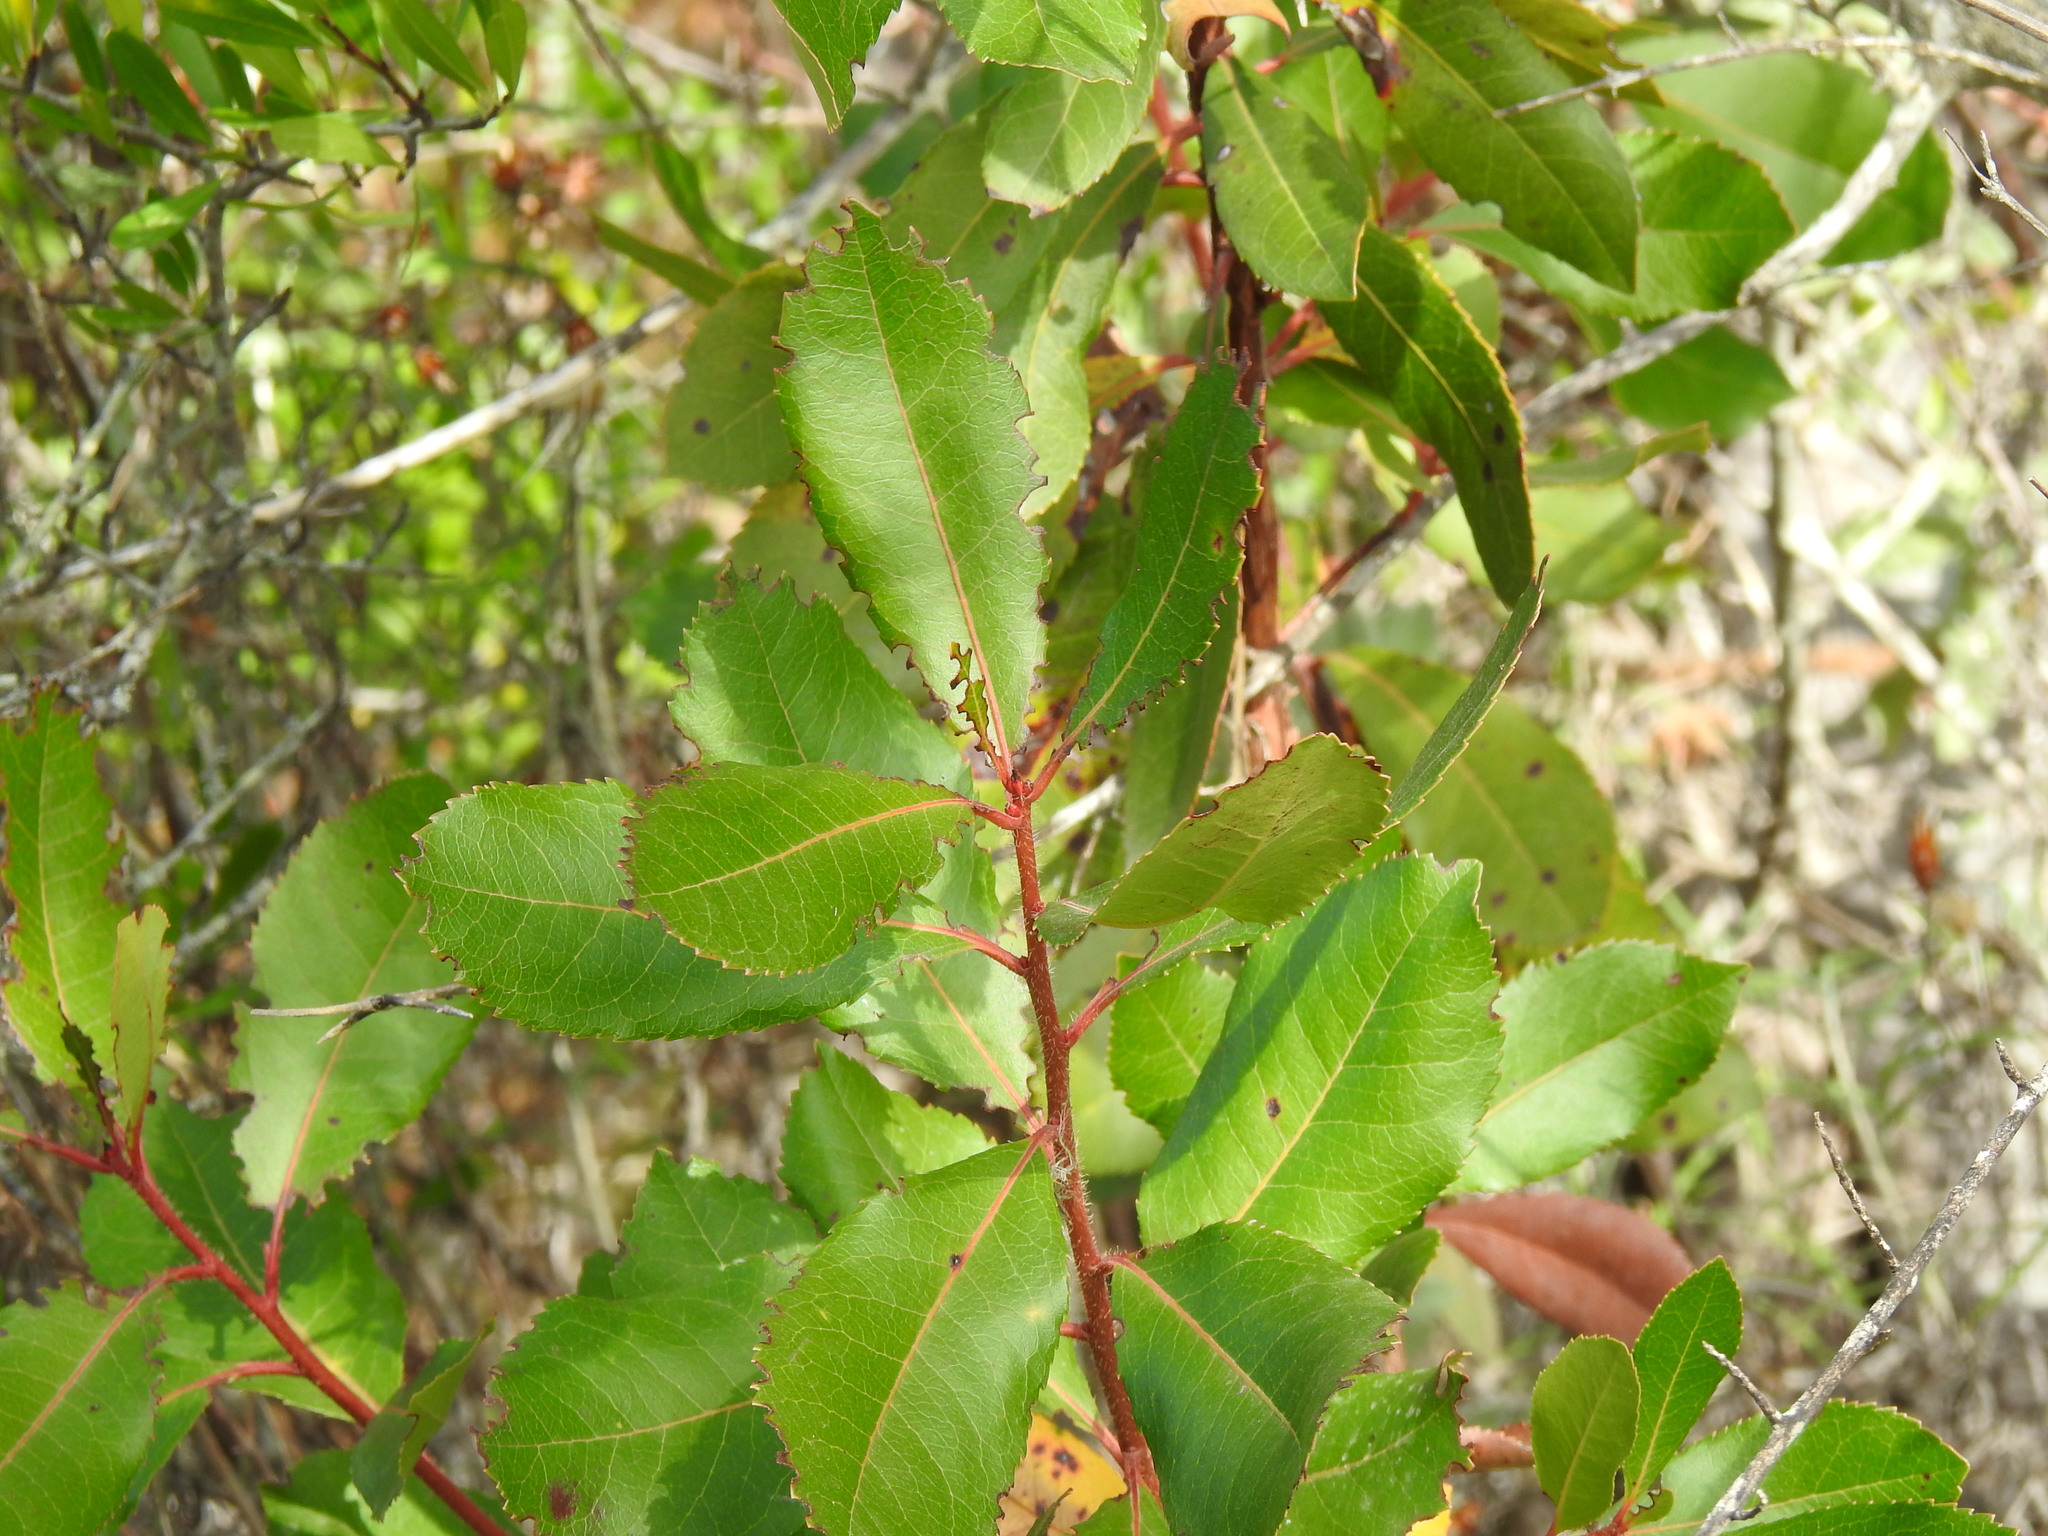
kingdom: Plantae
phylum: Tracheophyta
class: Magnoliopsida
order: Ericales
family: Ericaceae
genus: Arbutus
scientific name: Arbutus unedo
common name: Strawberry-tree
